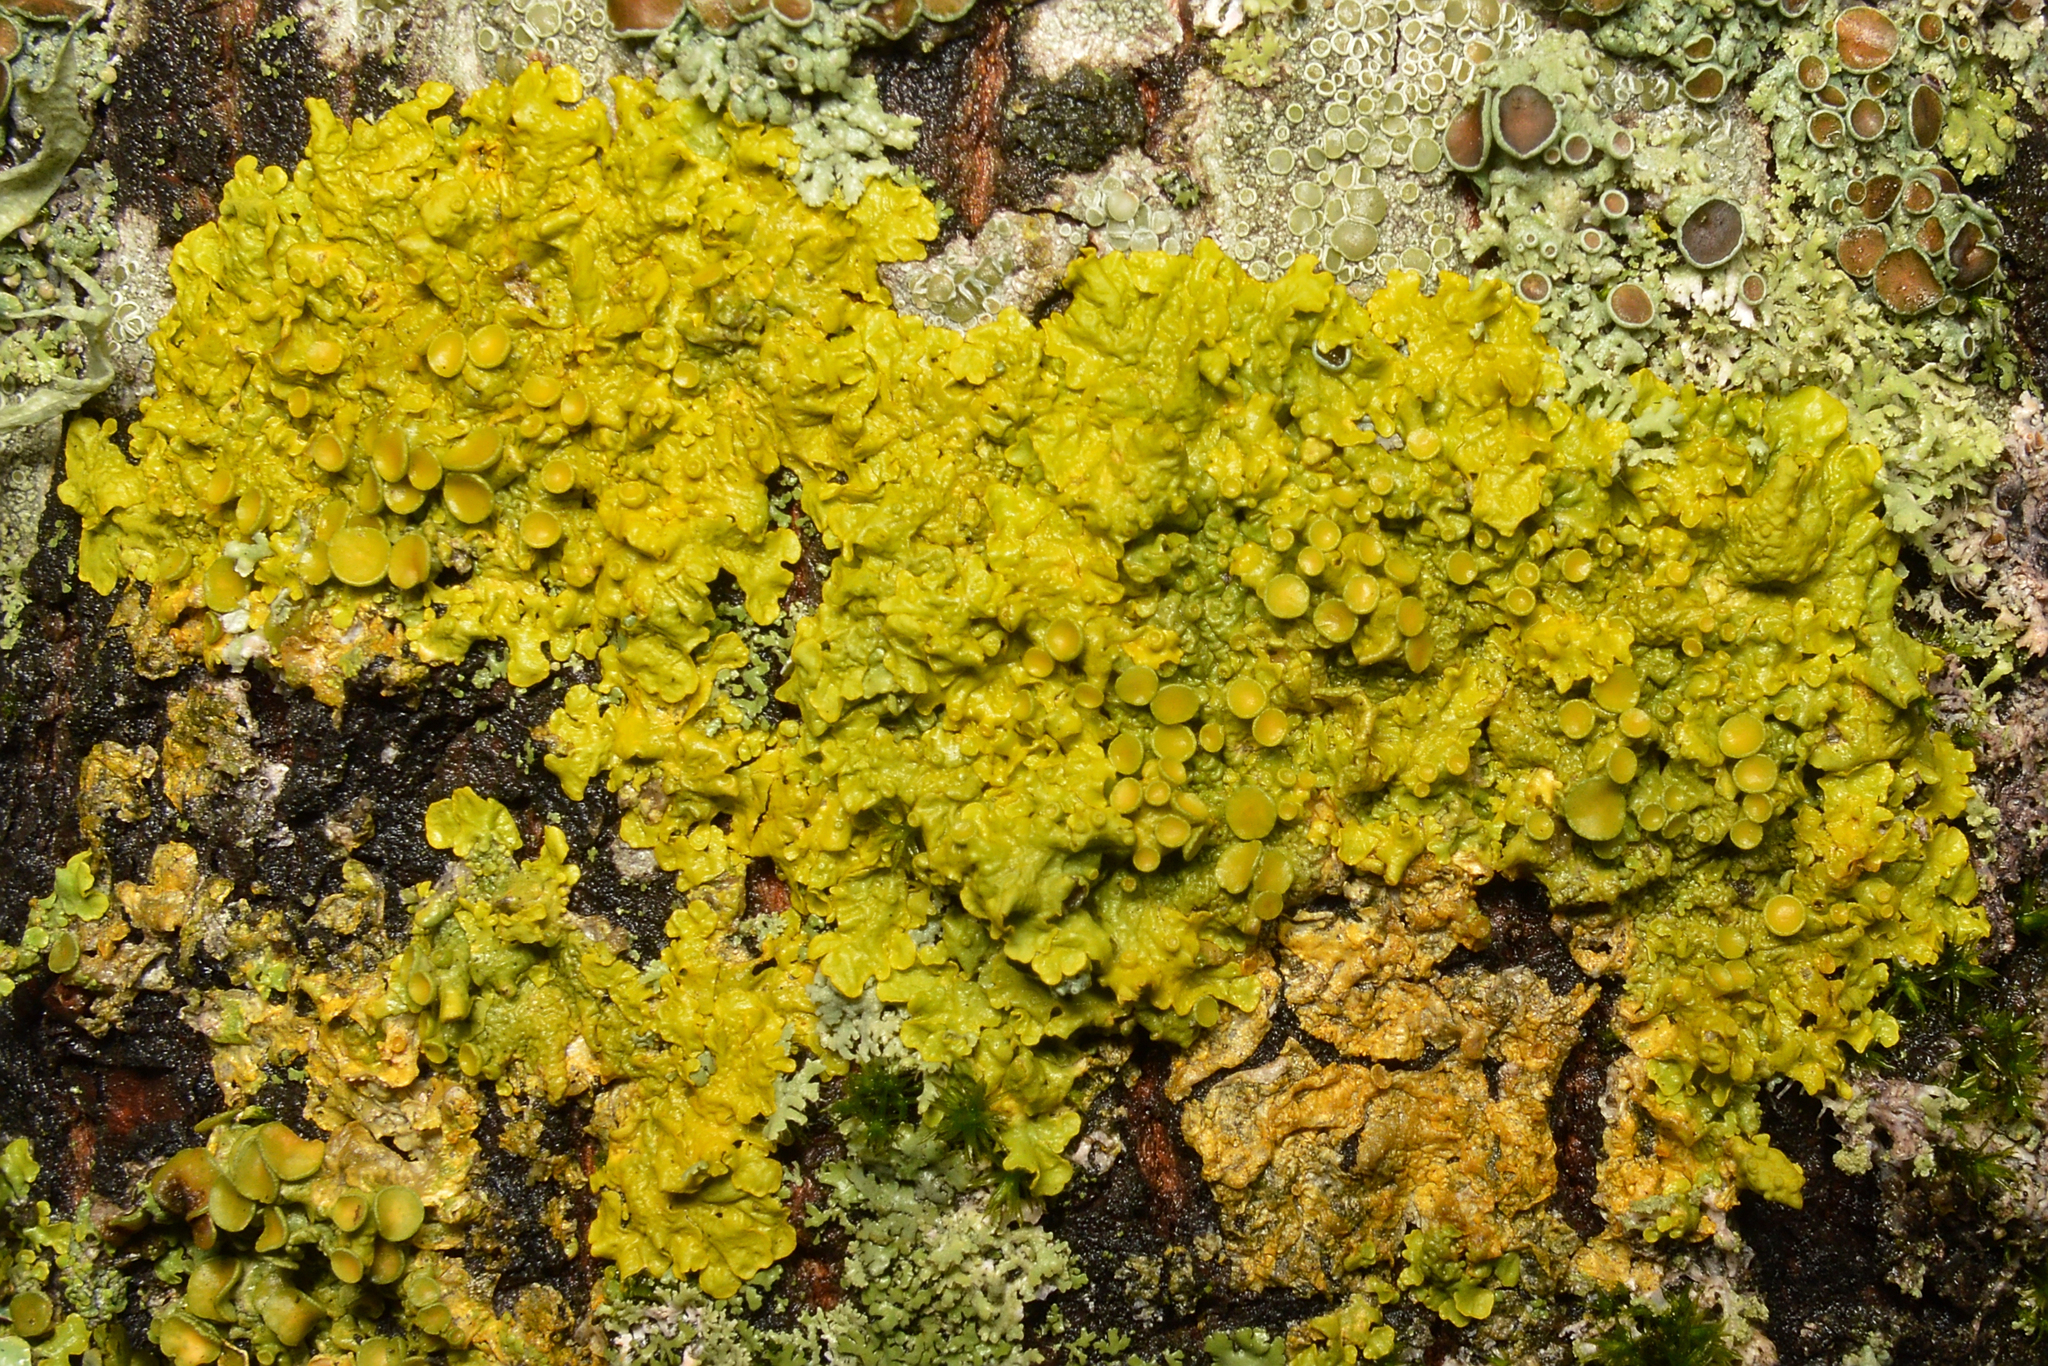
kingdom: Fungi
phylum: Ascomycota
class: Lecanoromycetes
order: Teloschistales
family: Teloschistaceae
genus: Xanthoria
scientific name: Xanthoria parietina
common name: Common orange lichen
